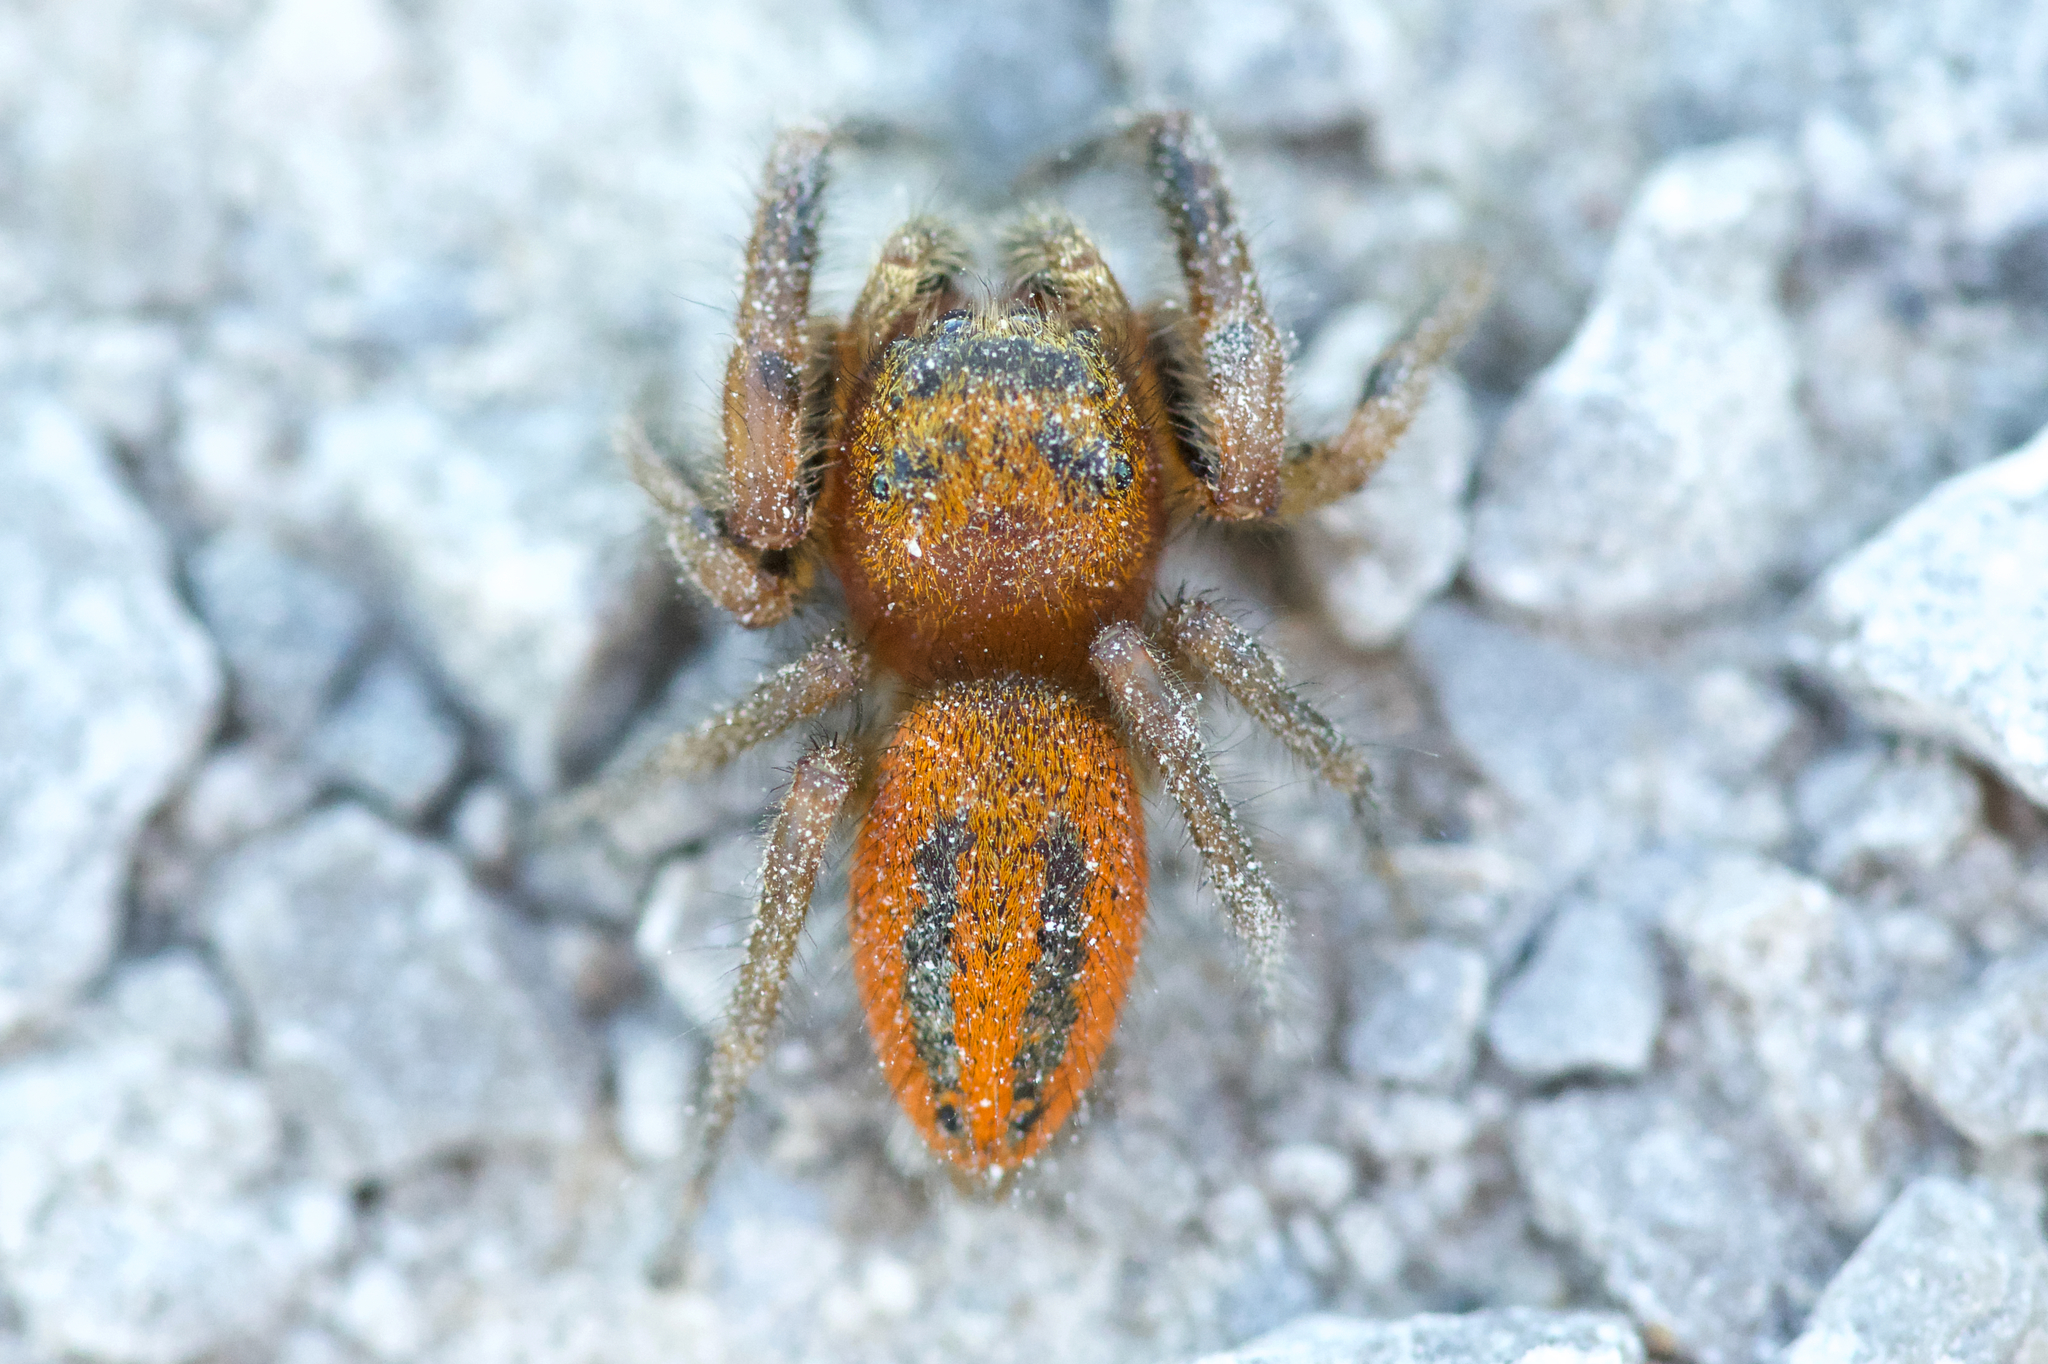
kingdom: Animalia
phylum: Arthropoda
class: Arachnida
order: Araneae
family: Salticidae
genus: Phidippus
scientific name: Phidippus pius
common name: Jumping spiders
